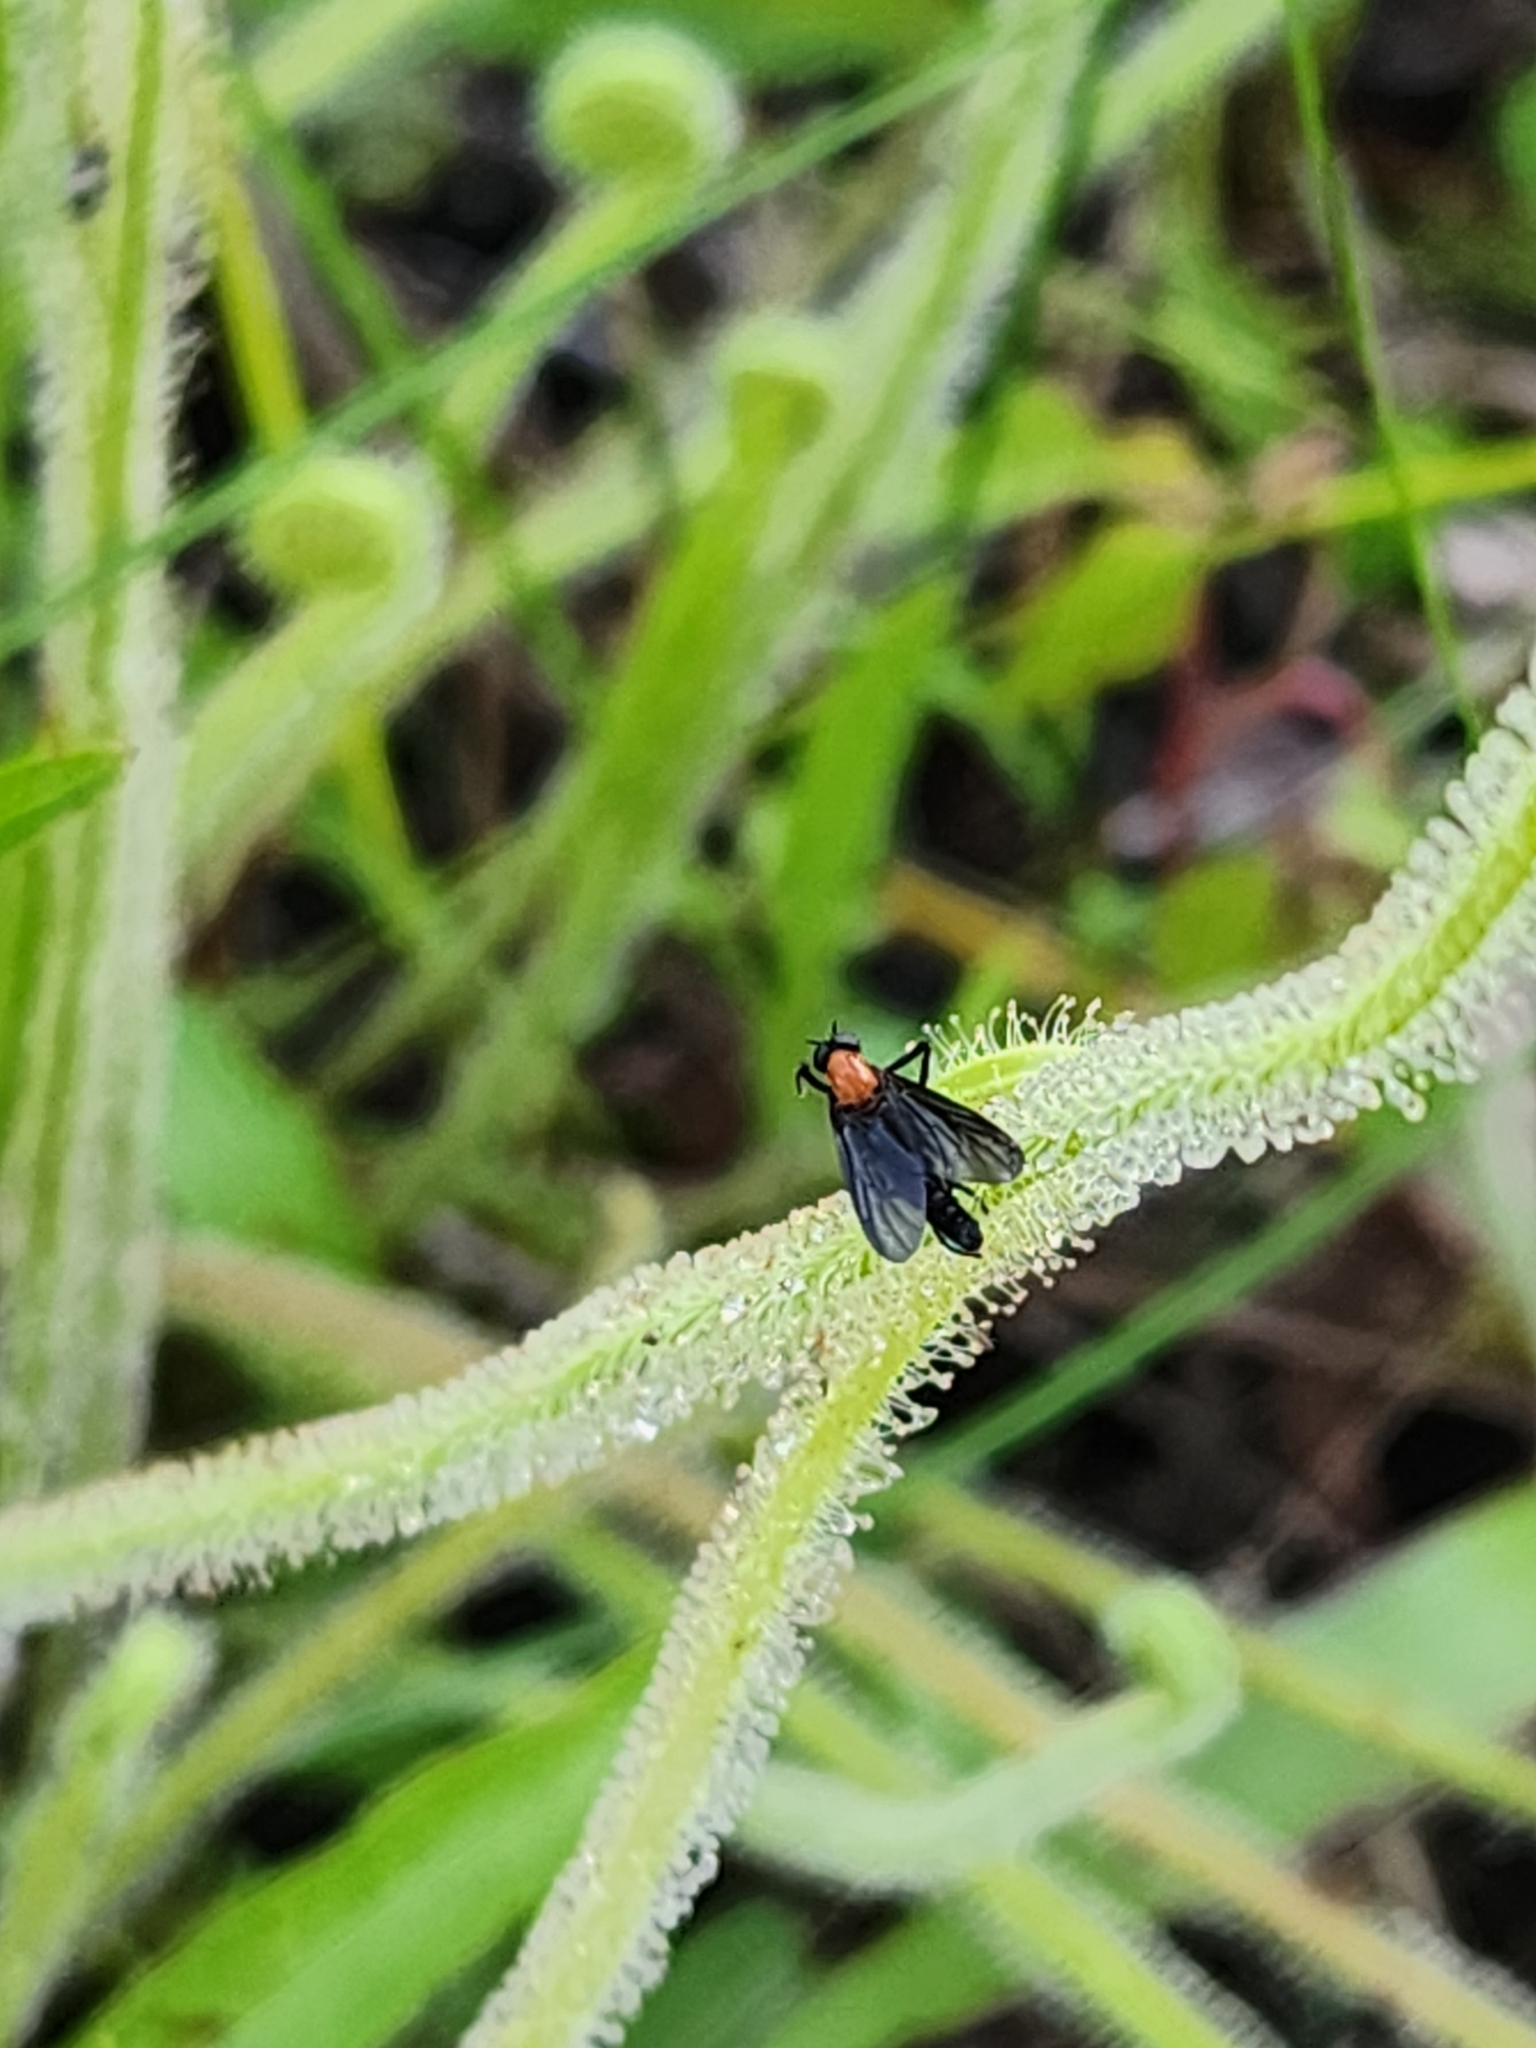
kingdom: Animalia
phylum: Arthropoda
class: Insecta
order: Diptera
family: Bibionidae
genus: Plecia
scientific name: Plecia nearctica
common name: March fly
